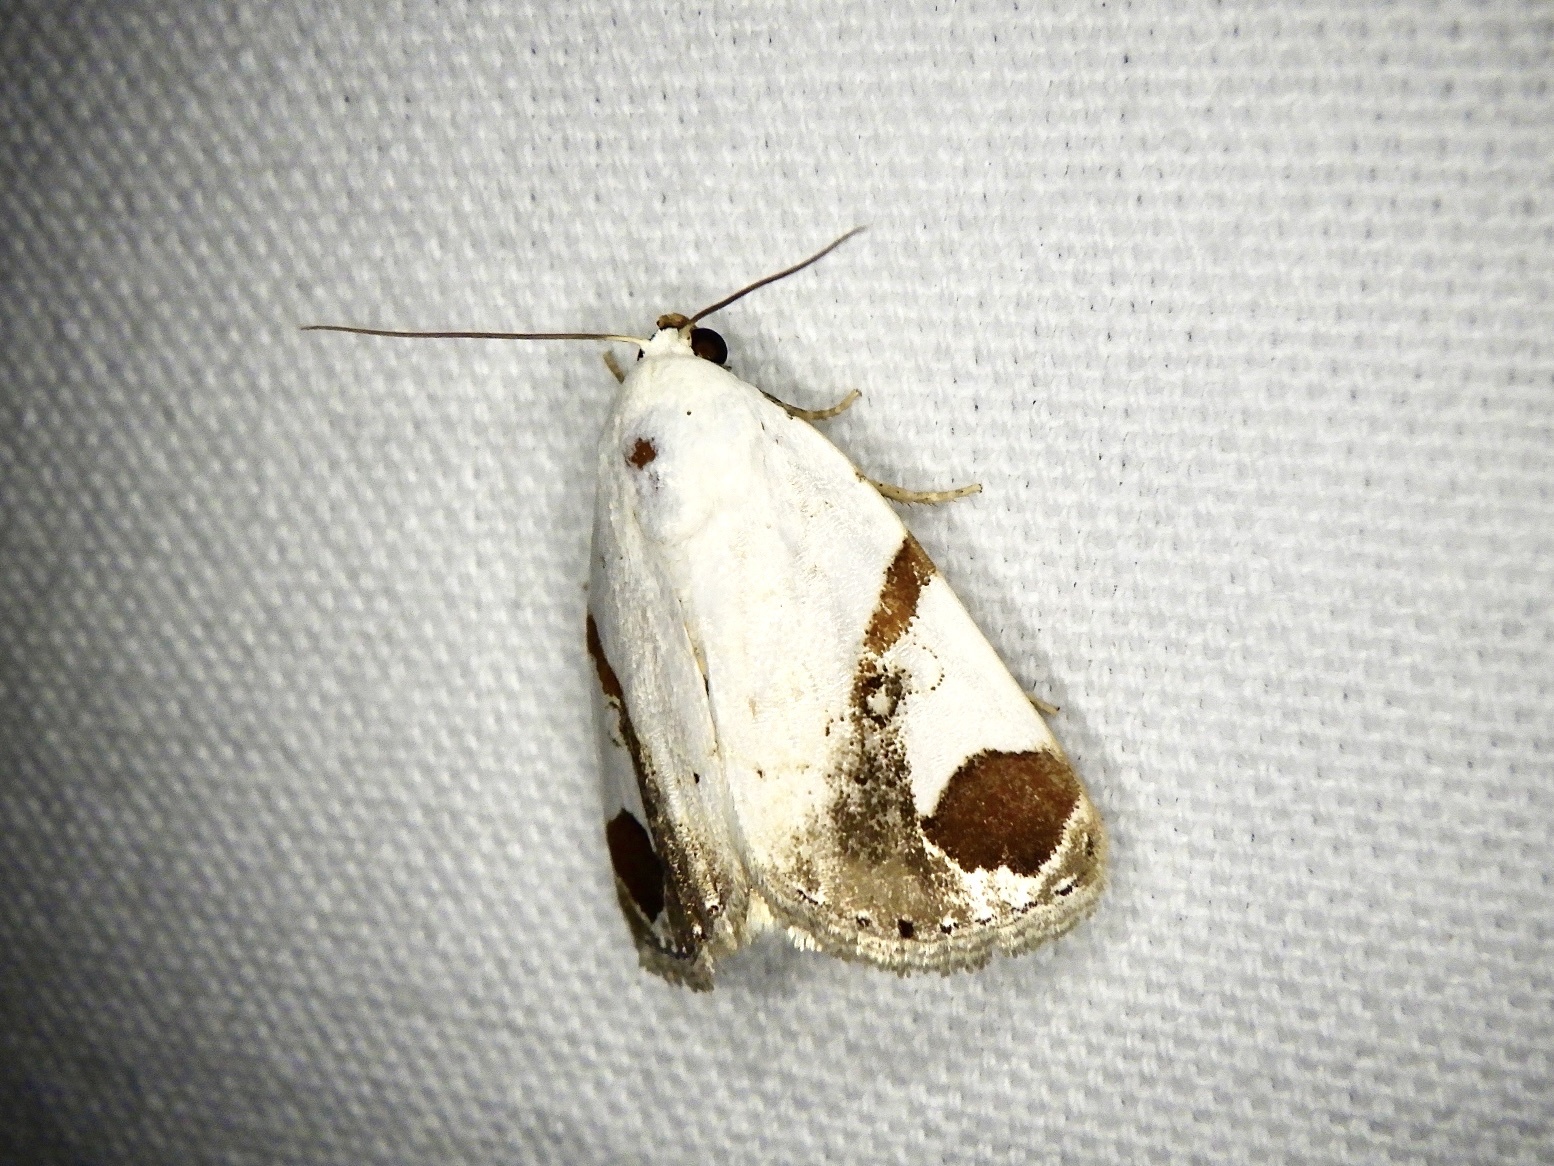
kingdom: Animalia
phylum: Arthropoda
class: Insecta
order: Lepidoptera
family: Noctuidae
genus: Sphragifera
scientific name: Sphragifera biplaga
